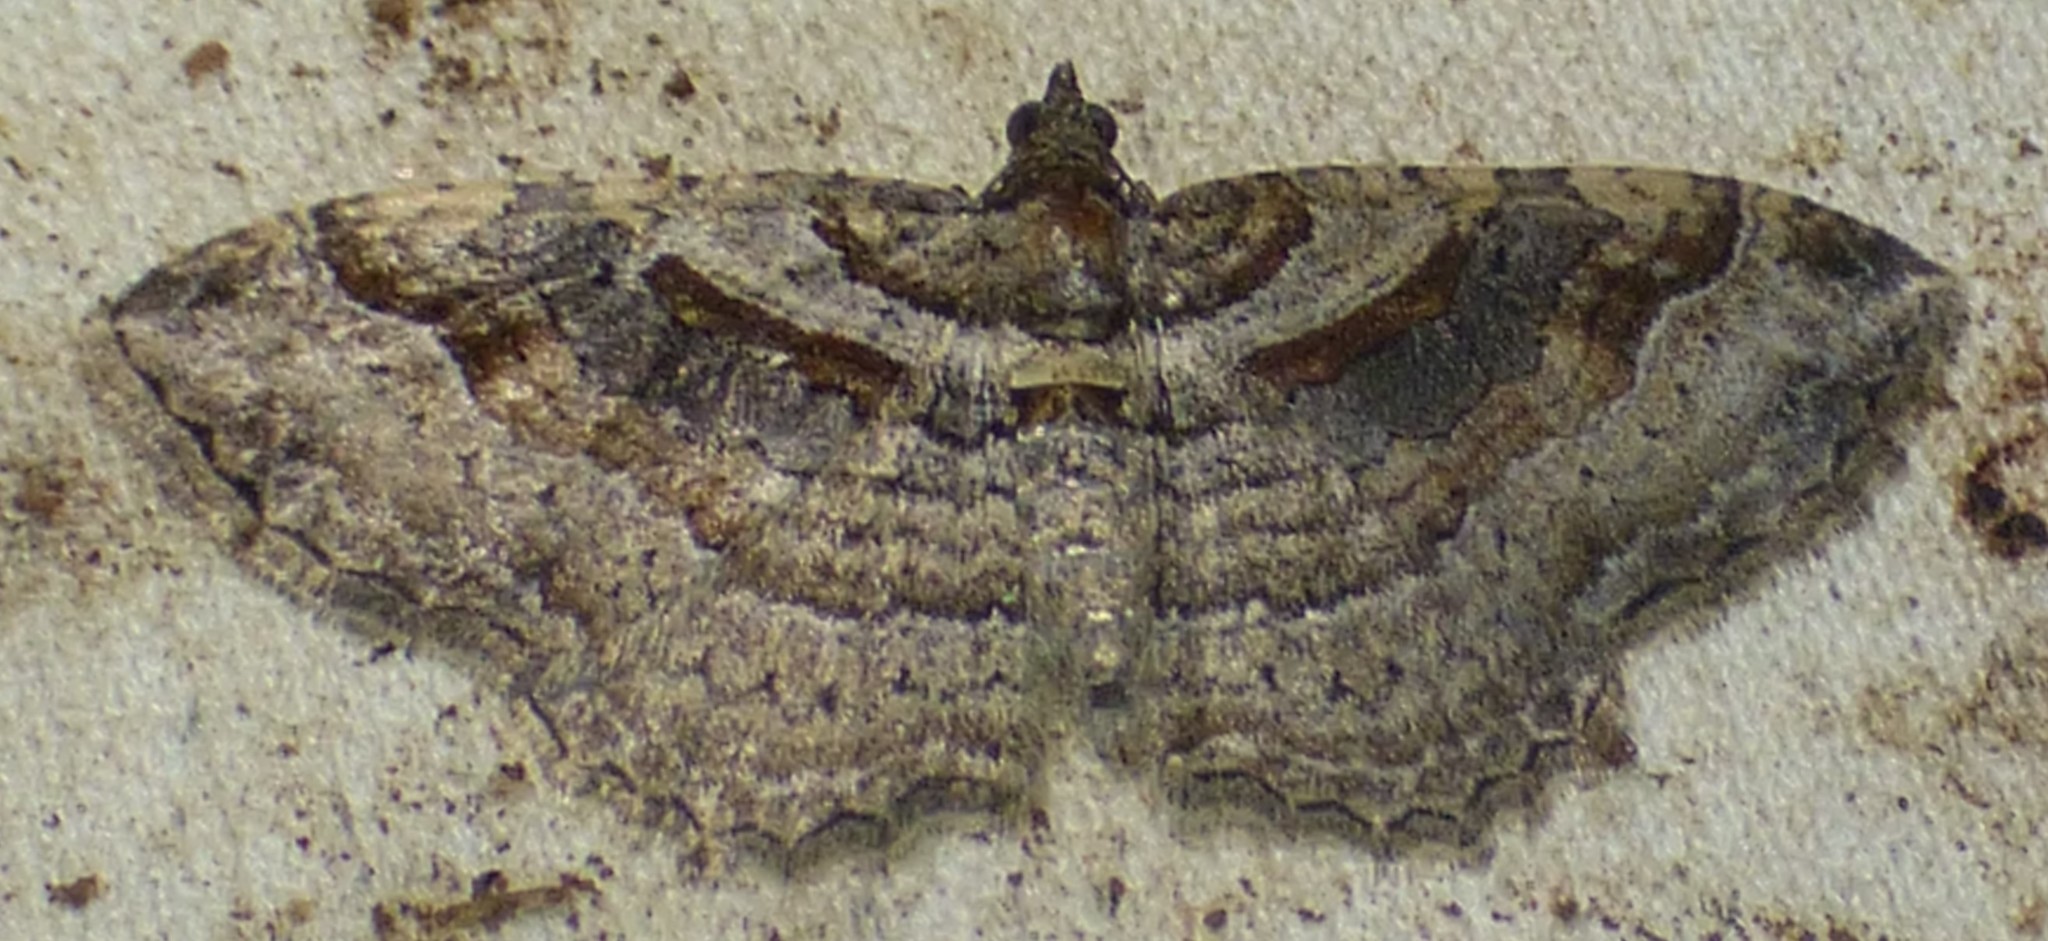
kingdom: Animalia
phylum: Arthropoda
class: Insecta
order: Lepidoptera
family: Geometridae
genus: Costaconvexa
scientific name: Costaconvexa centrostrigaria
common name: Bent-line carpet
